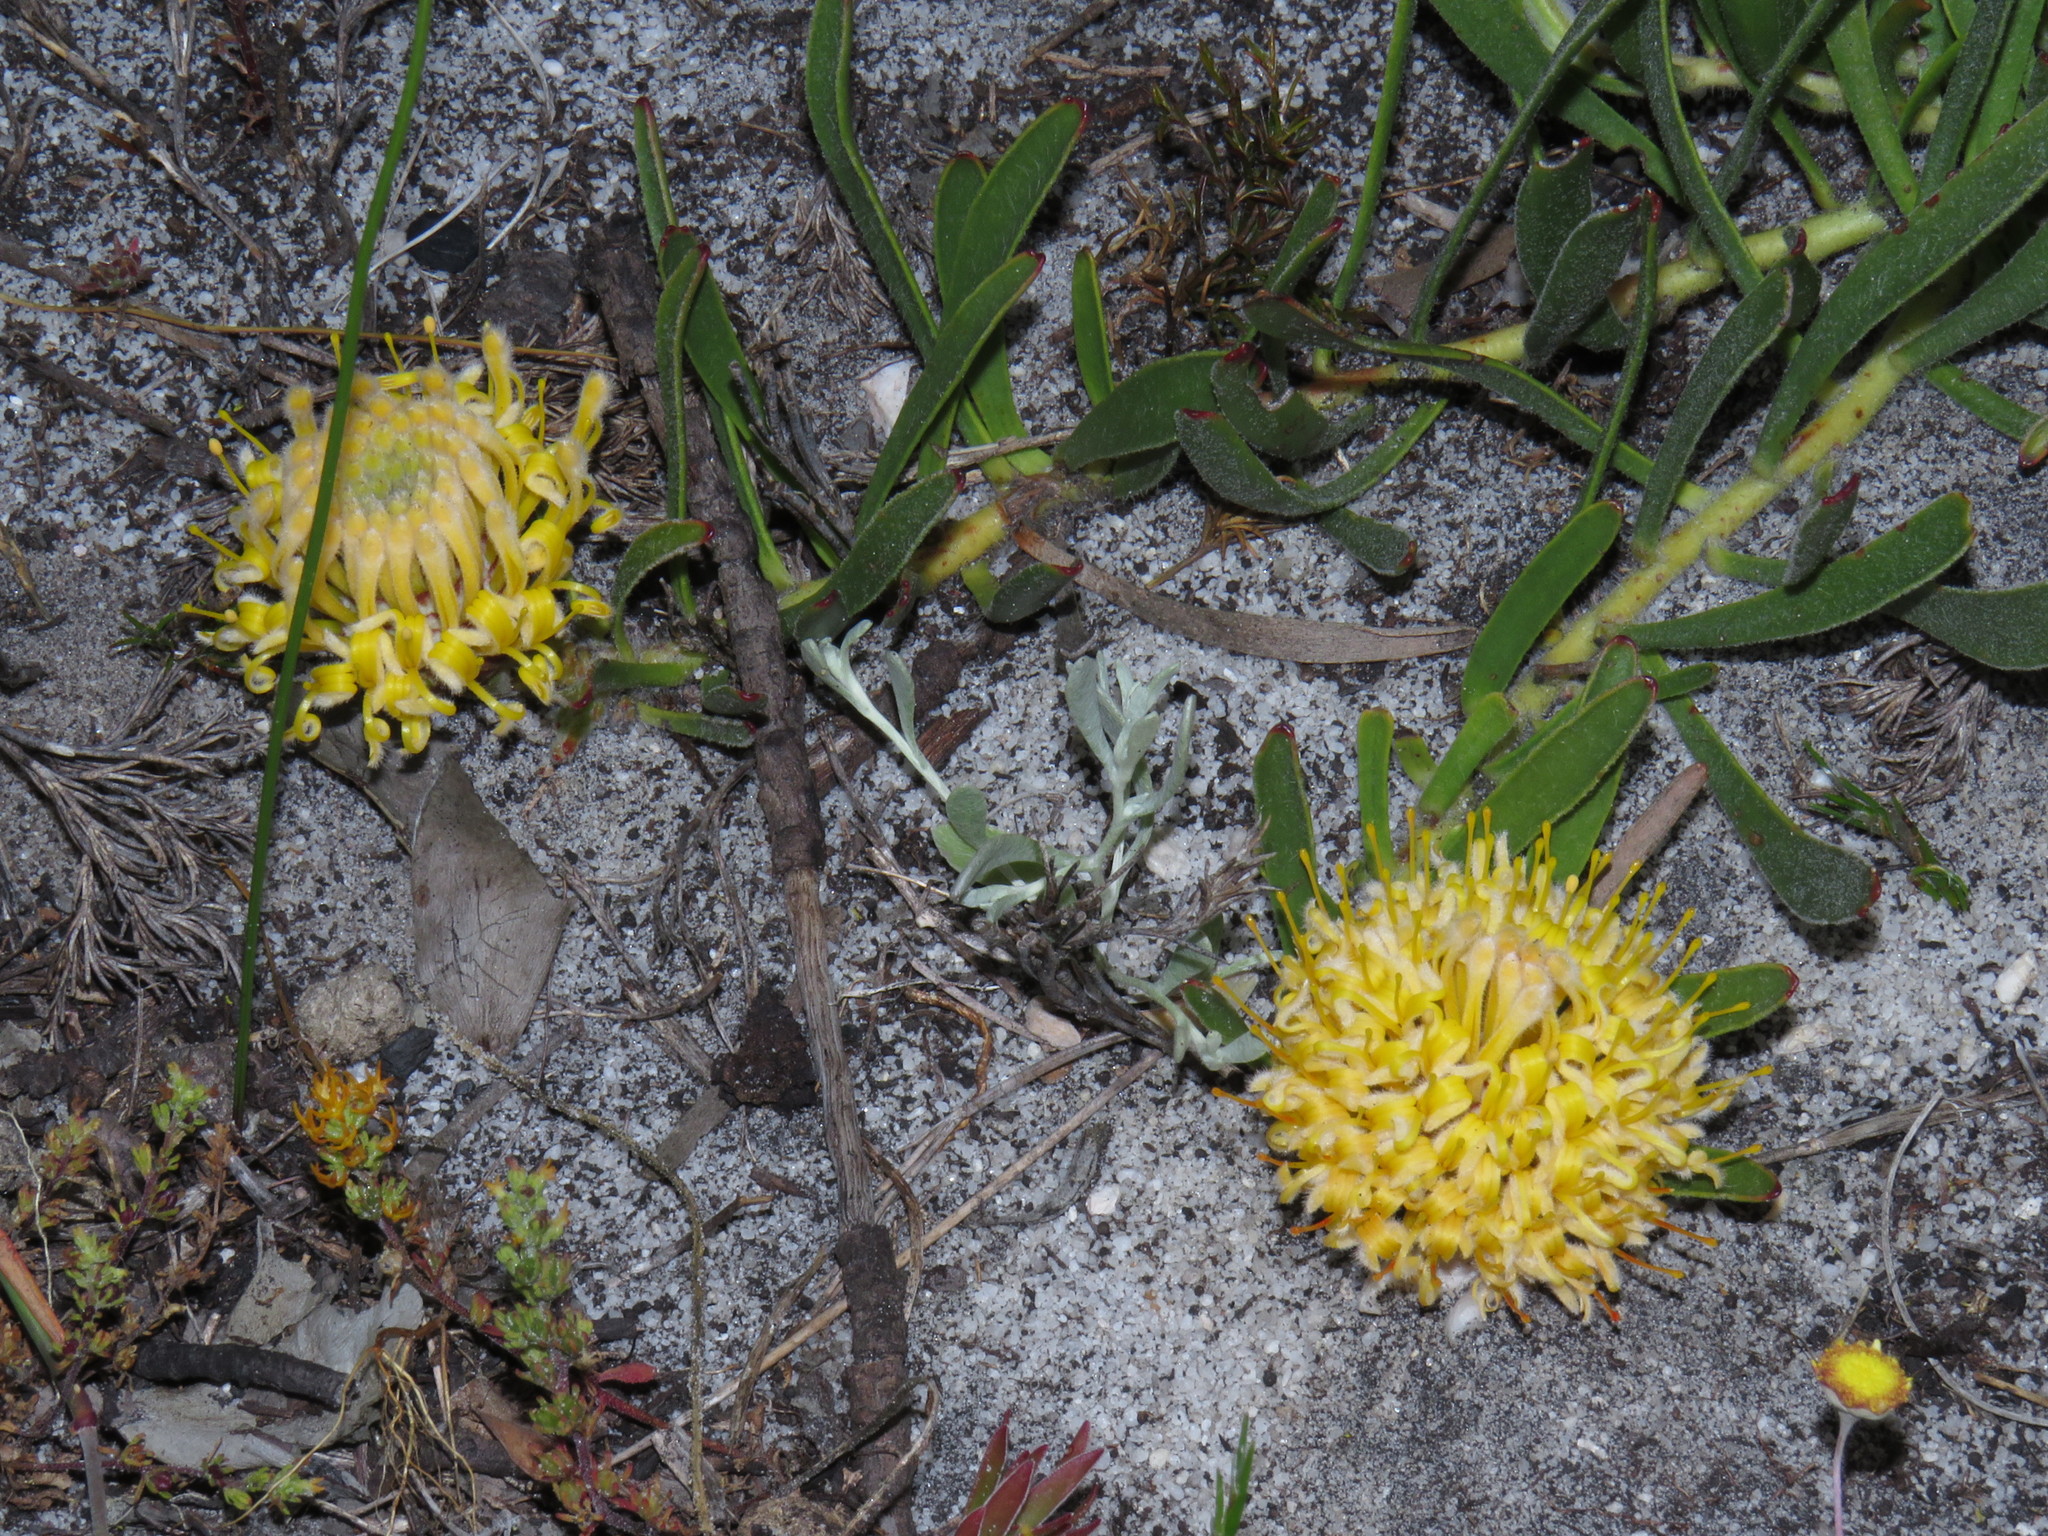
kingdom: Plantae
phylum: Tracheophyta
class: Magnoliopsida
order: Proteales
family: Proteaceae
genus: Leucospermum
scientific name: Leucospermum hypophyllocarpodendron
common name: Snakestem pincushion
